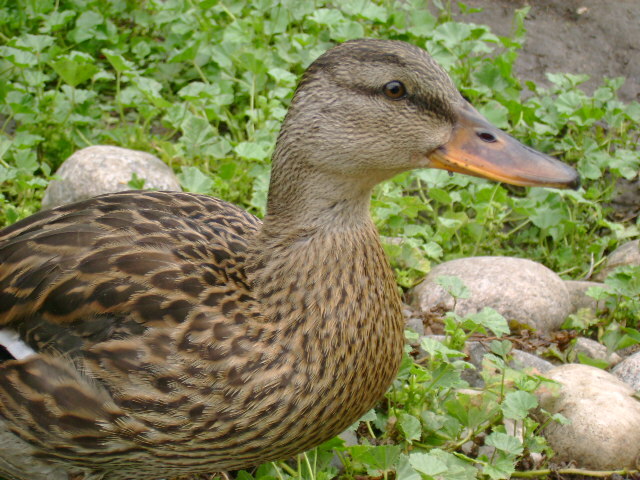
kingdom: Animalia
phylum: Chordata
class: Aves
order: Anseriformes
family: Anatidae
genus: Anas
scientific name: Anas platyrhynchos
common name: Mallard
